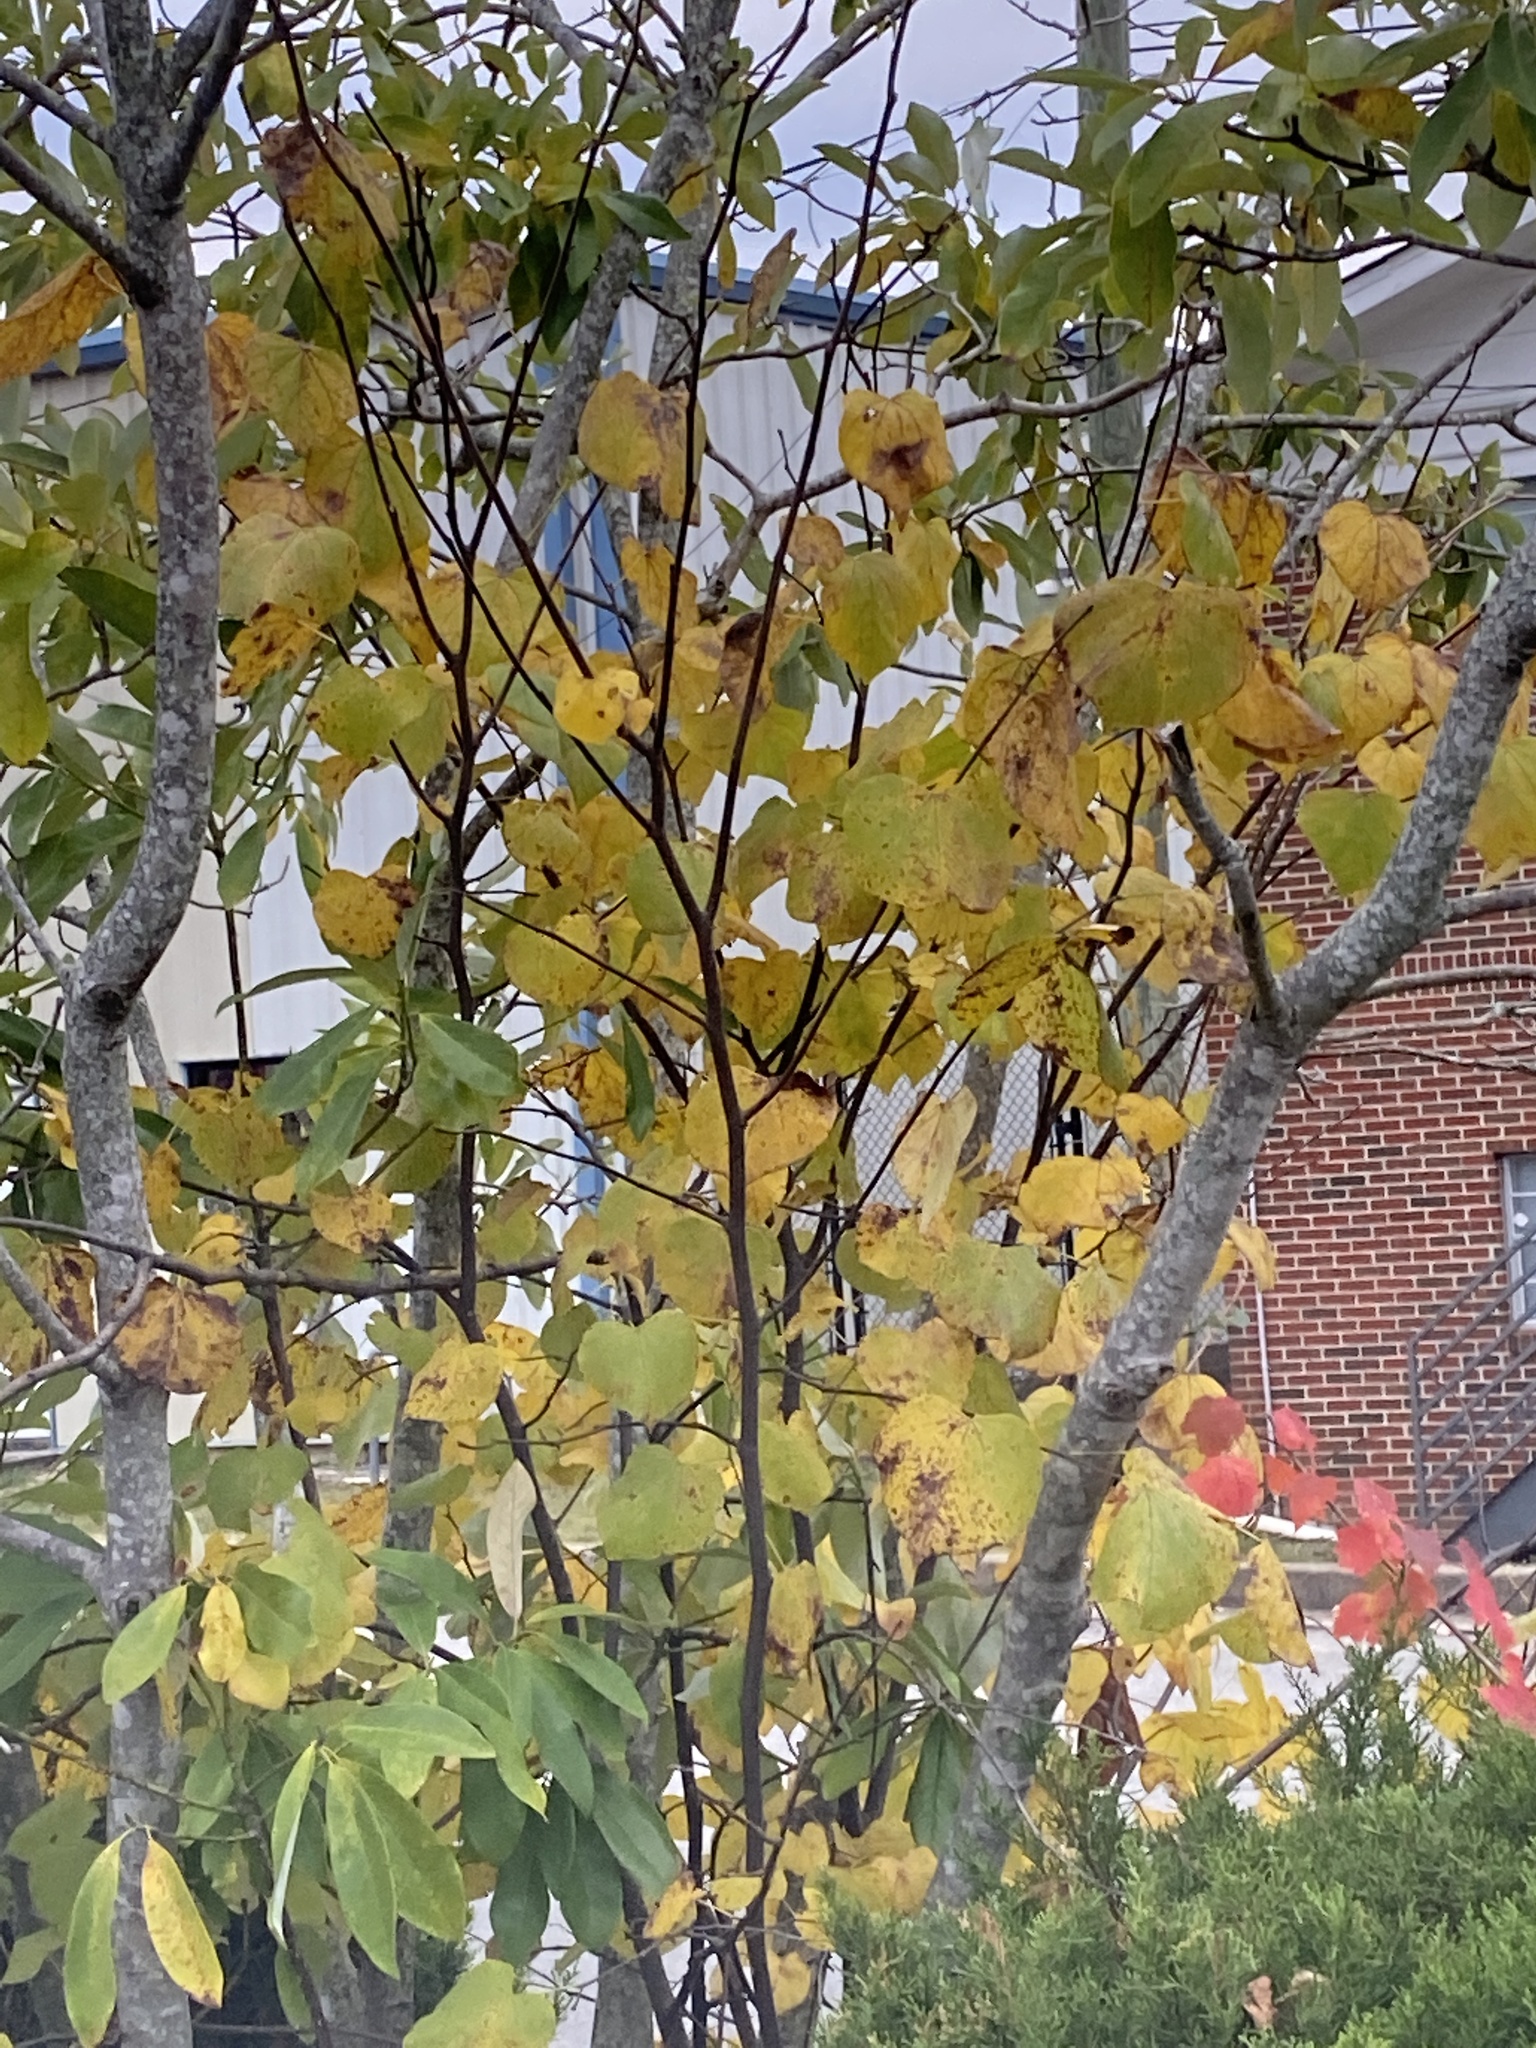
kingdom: Plantae
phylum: Tracheophyta
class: Magnoliopsida
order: Fabales
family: Fabaceae
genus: Cercis
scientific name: Cercis canadensis
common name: Eastern redbud
